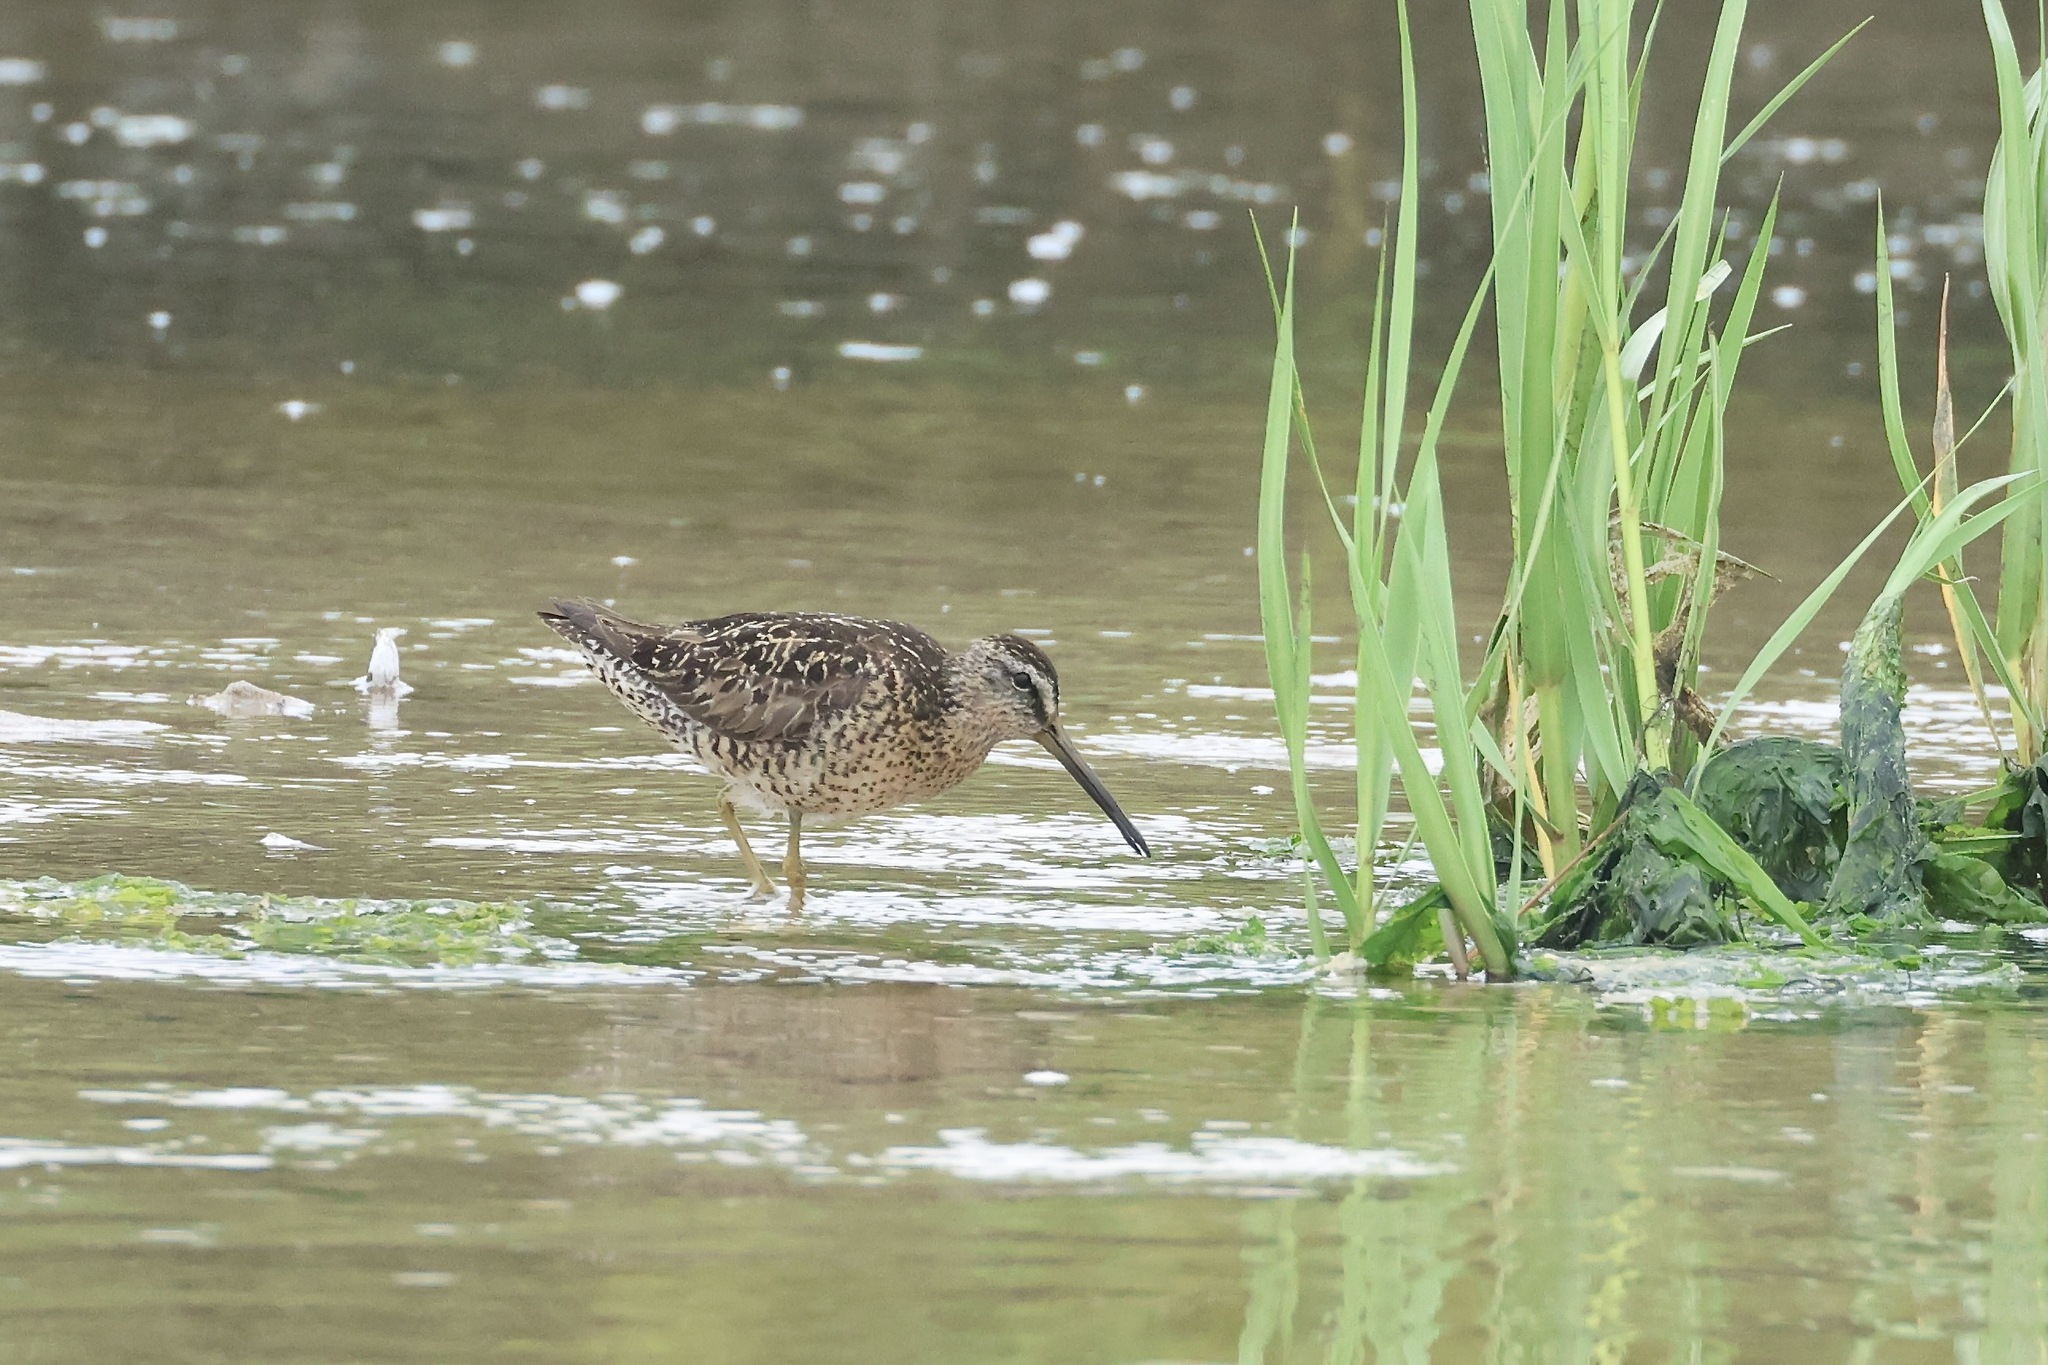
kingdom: Animalia
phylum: Chordata
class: Aves
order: Charadriiformes
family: Scolopacidae
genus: Limnodromus
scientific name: Limnodromus griseus
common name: Short-billed dowitcher
